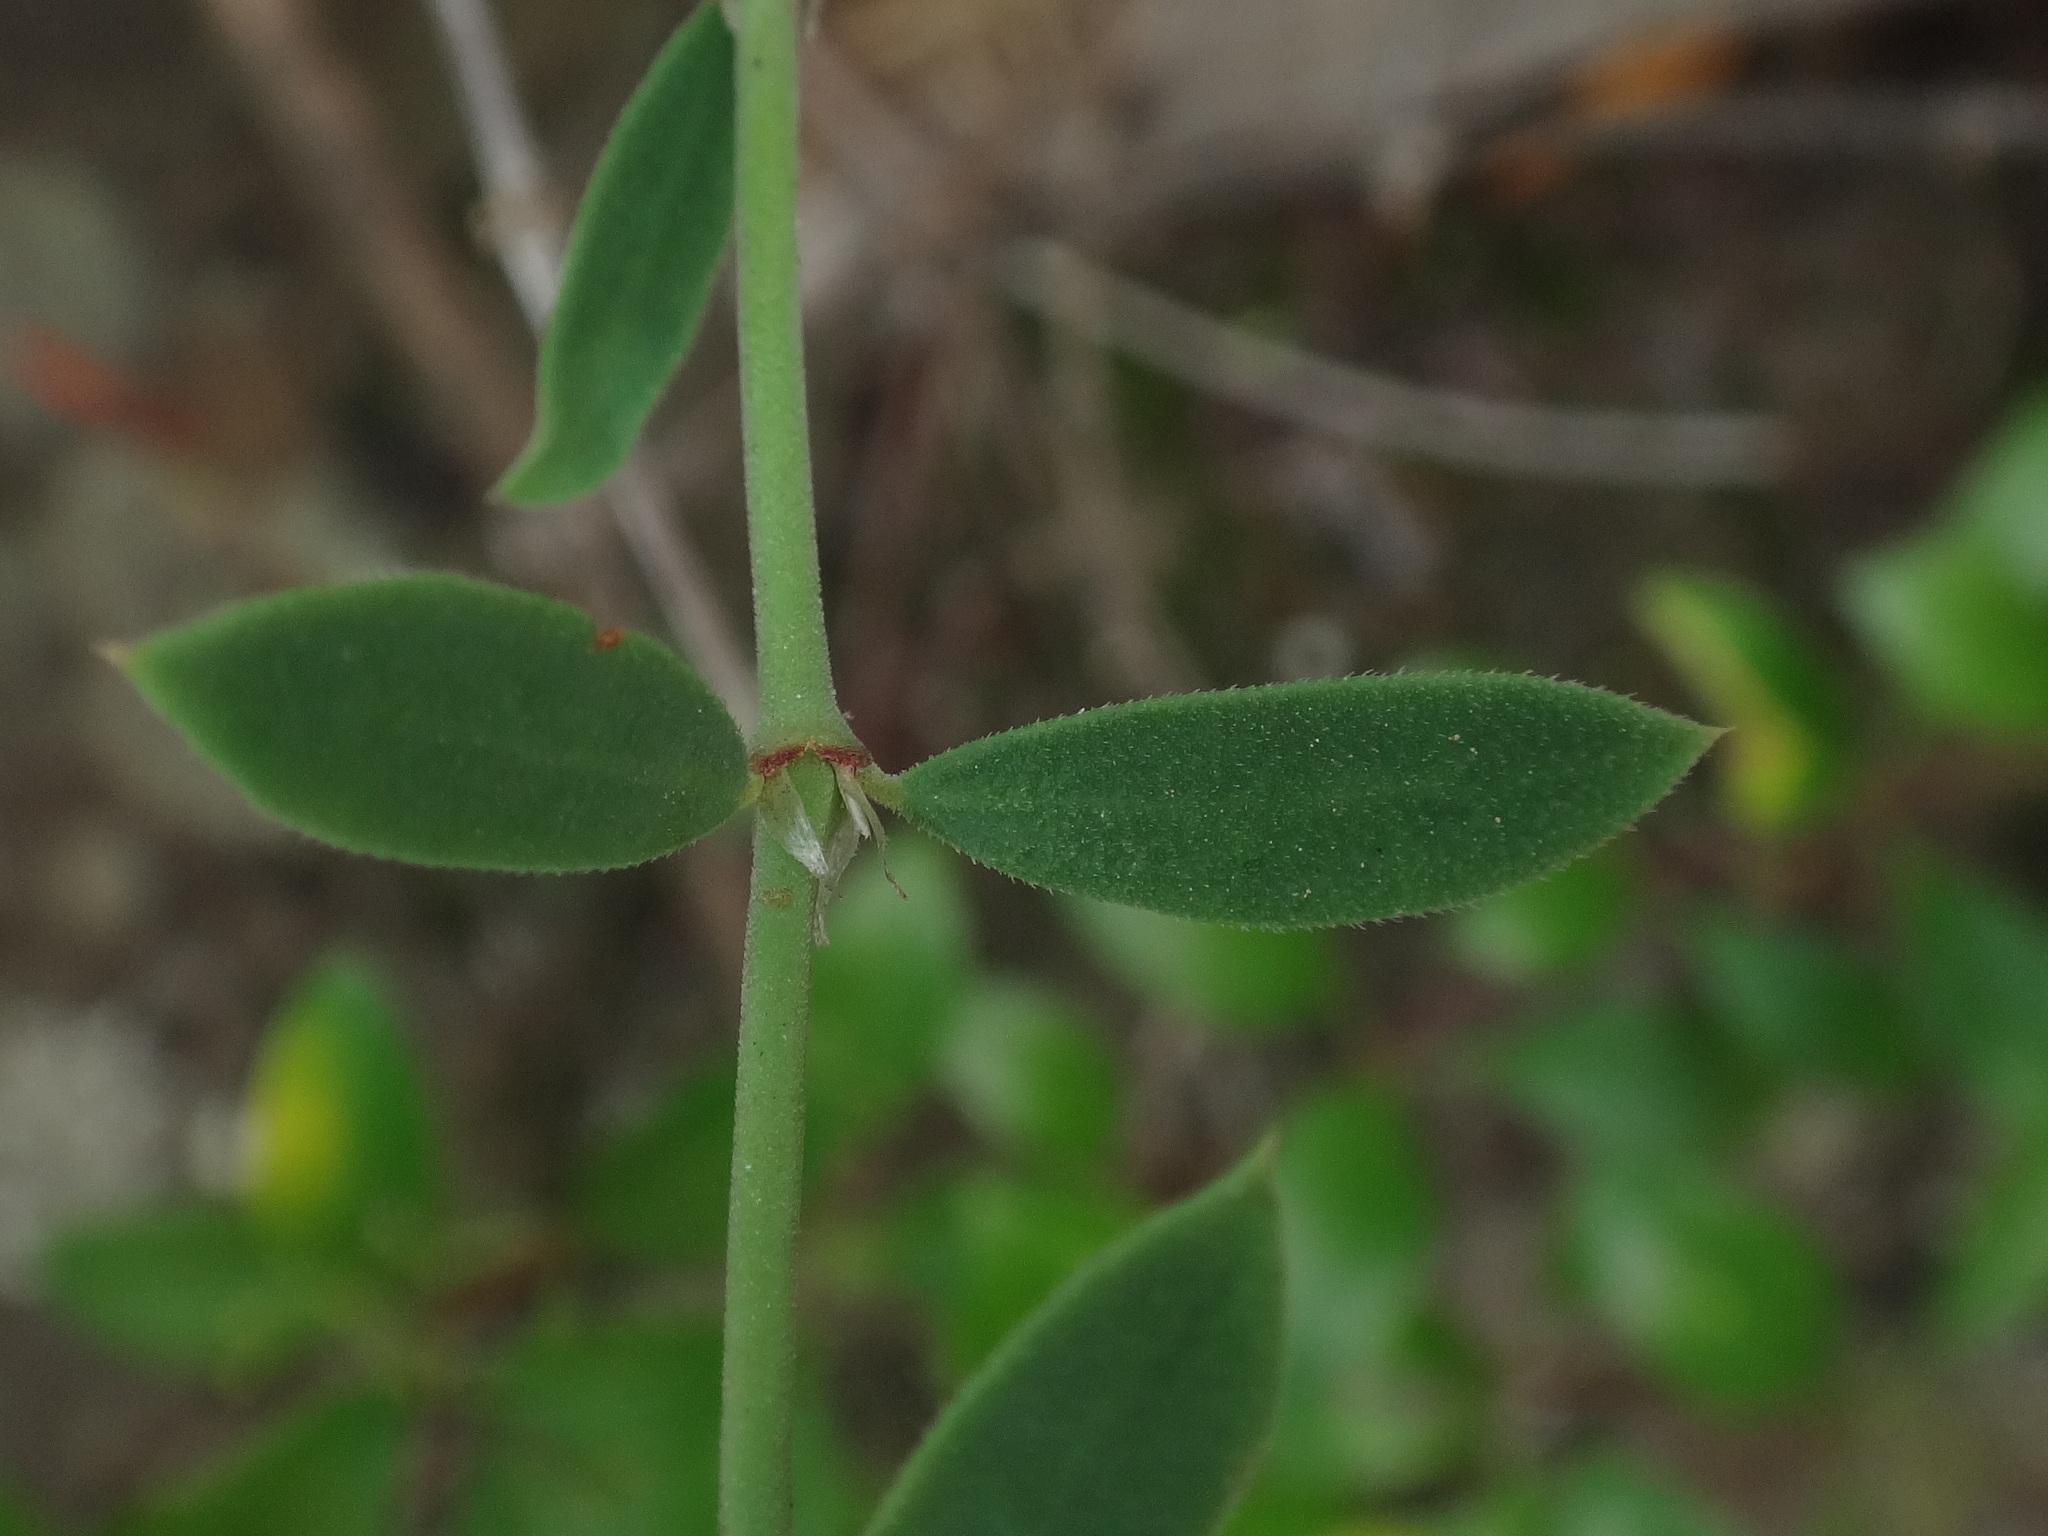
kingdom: Plantae
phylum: Tracheophyta
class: Magnoliopsida
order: Caryophyllales
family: Caryophyllaceae
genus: Paronychia
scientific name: Paronychia canariensis
